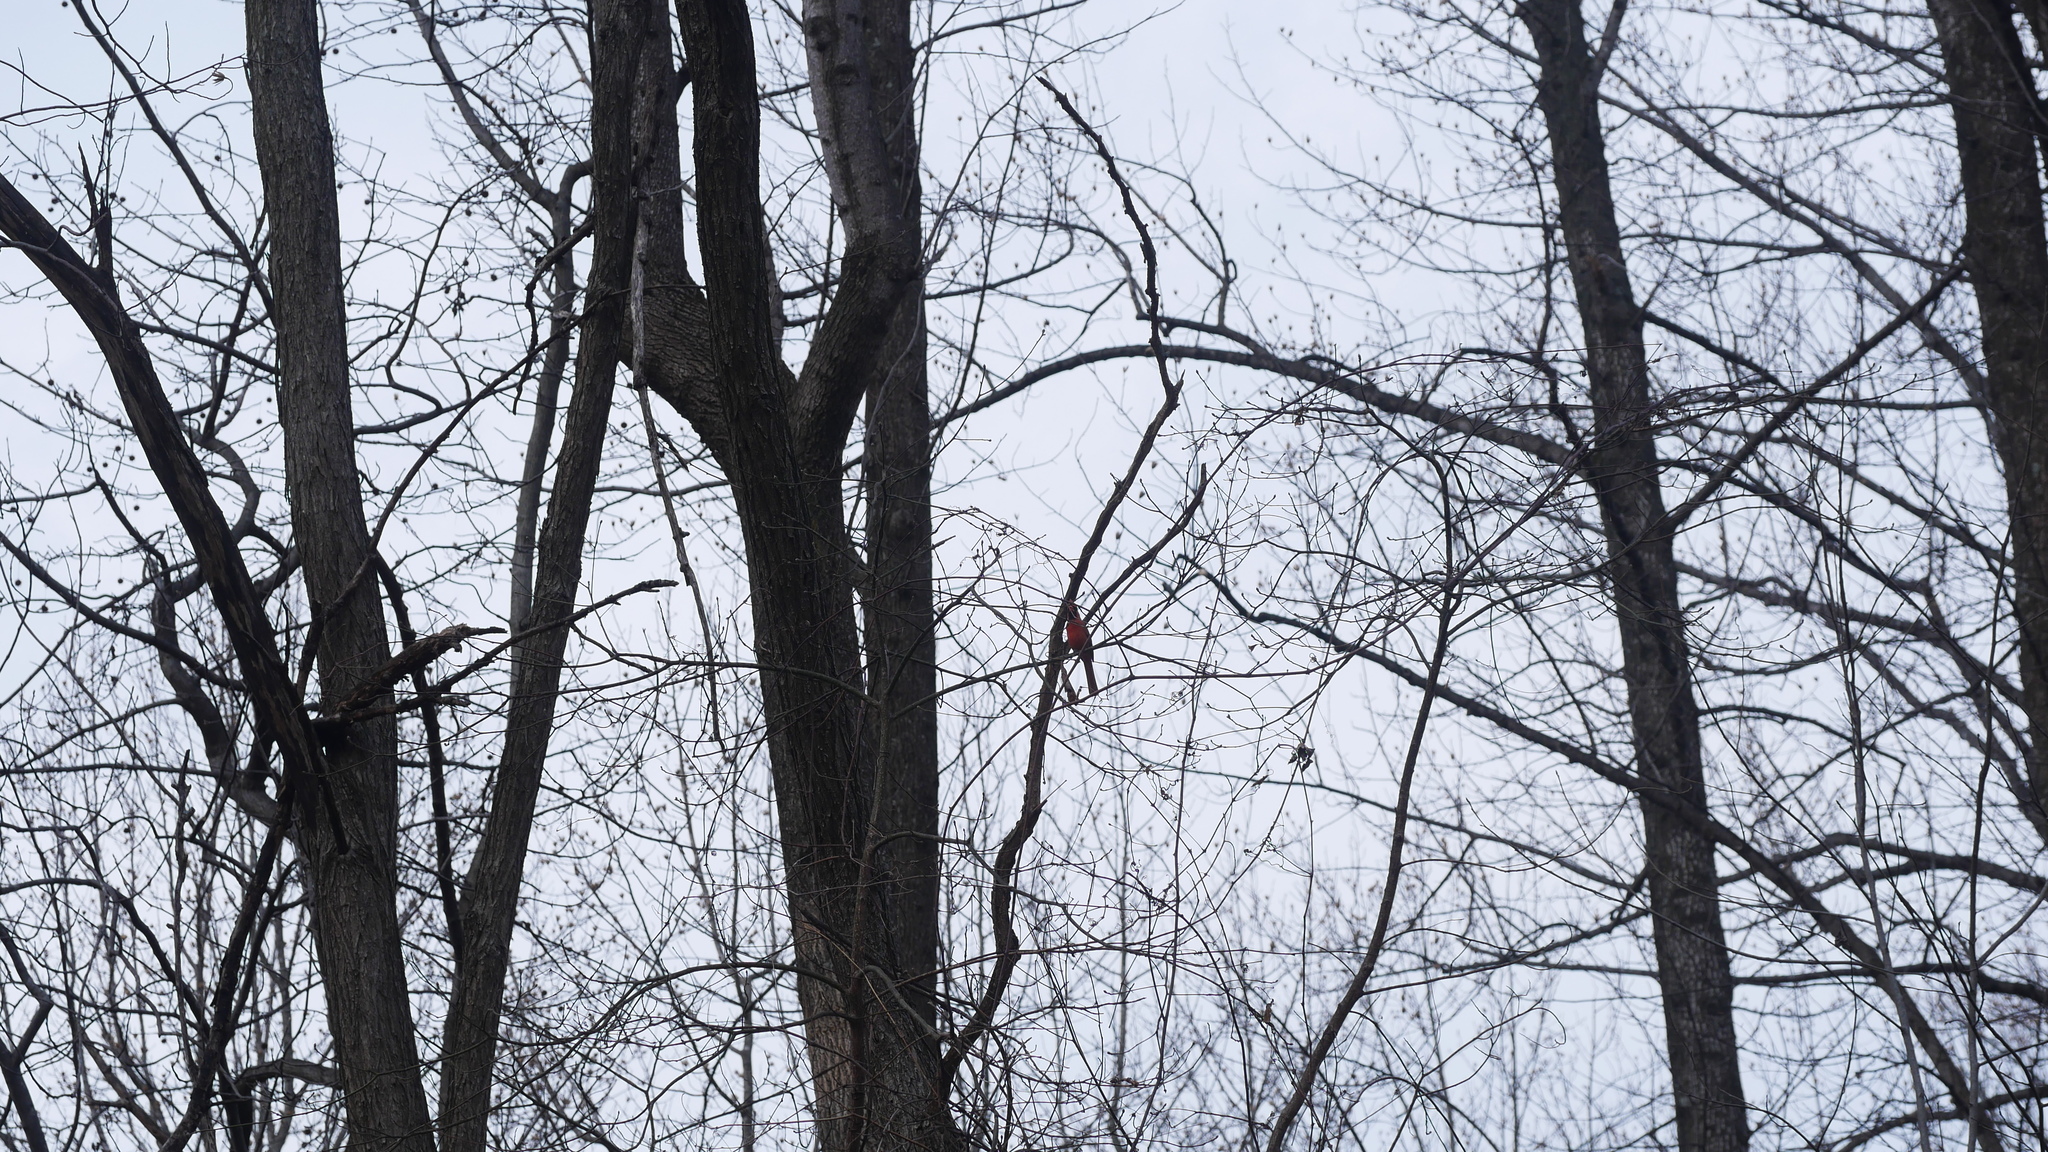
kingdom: Animalia
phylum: Chordata
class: Aves
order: Passeriformes
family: Cardinalidae
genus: Cardinalis
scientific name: Cardinalis cardinalis
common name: Northern cardinal
